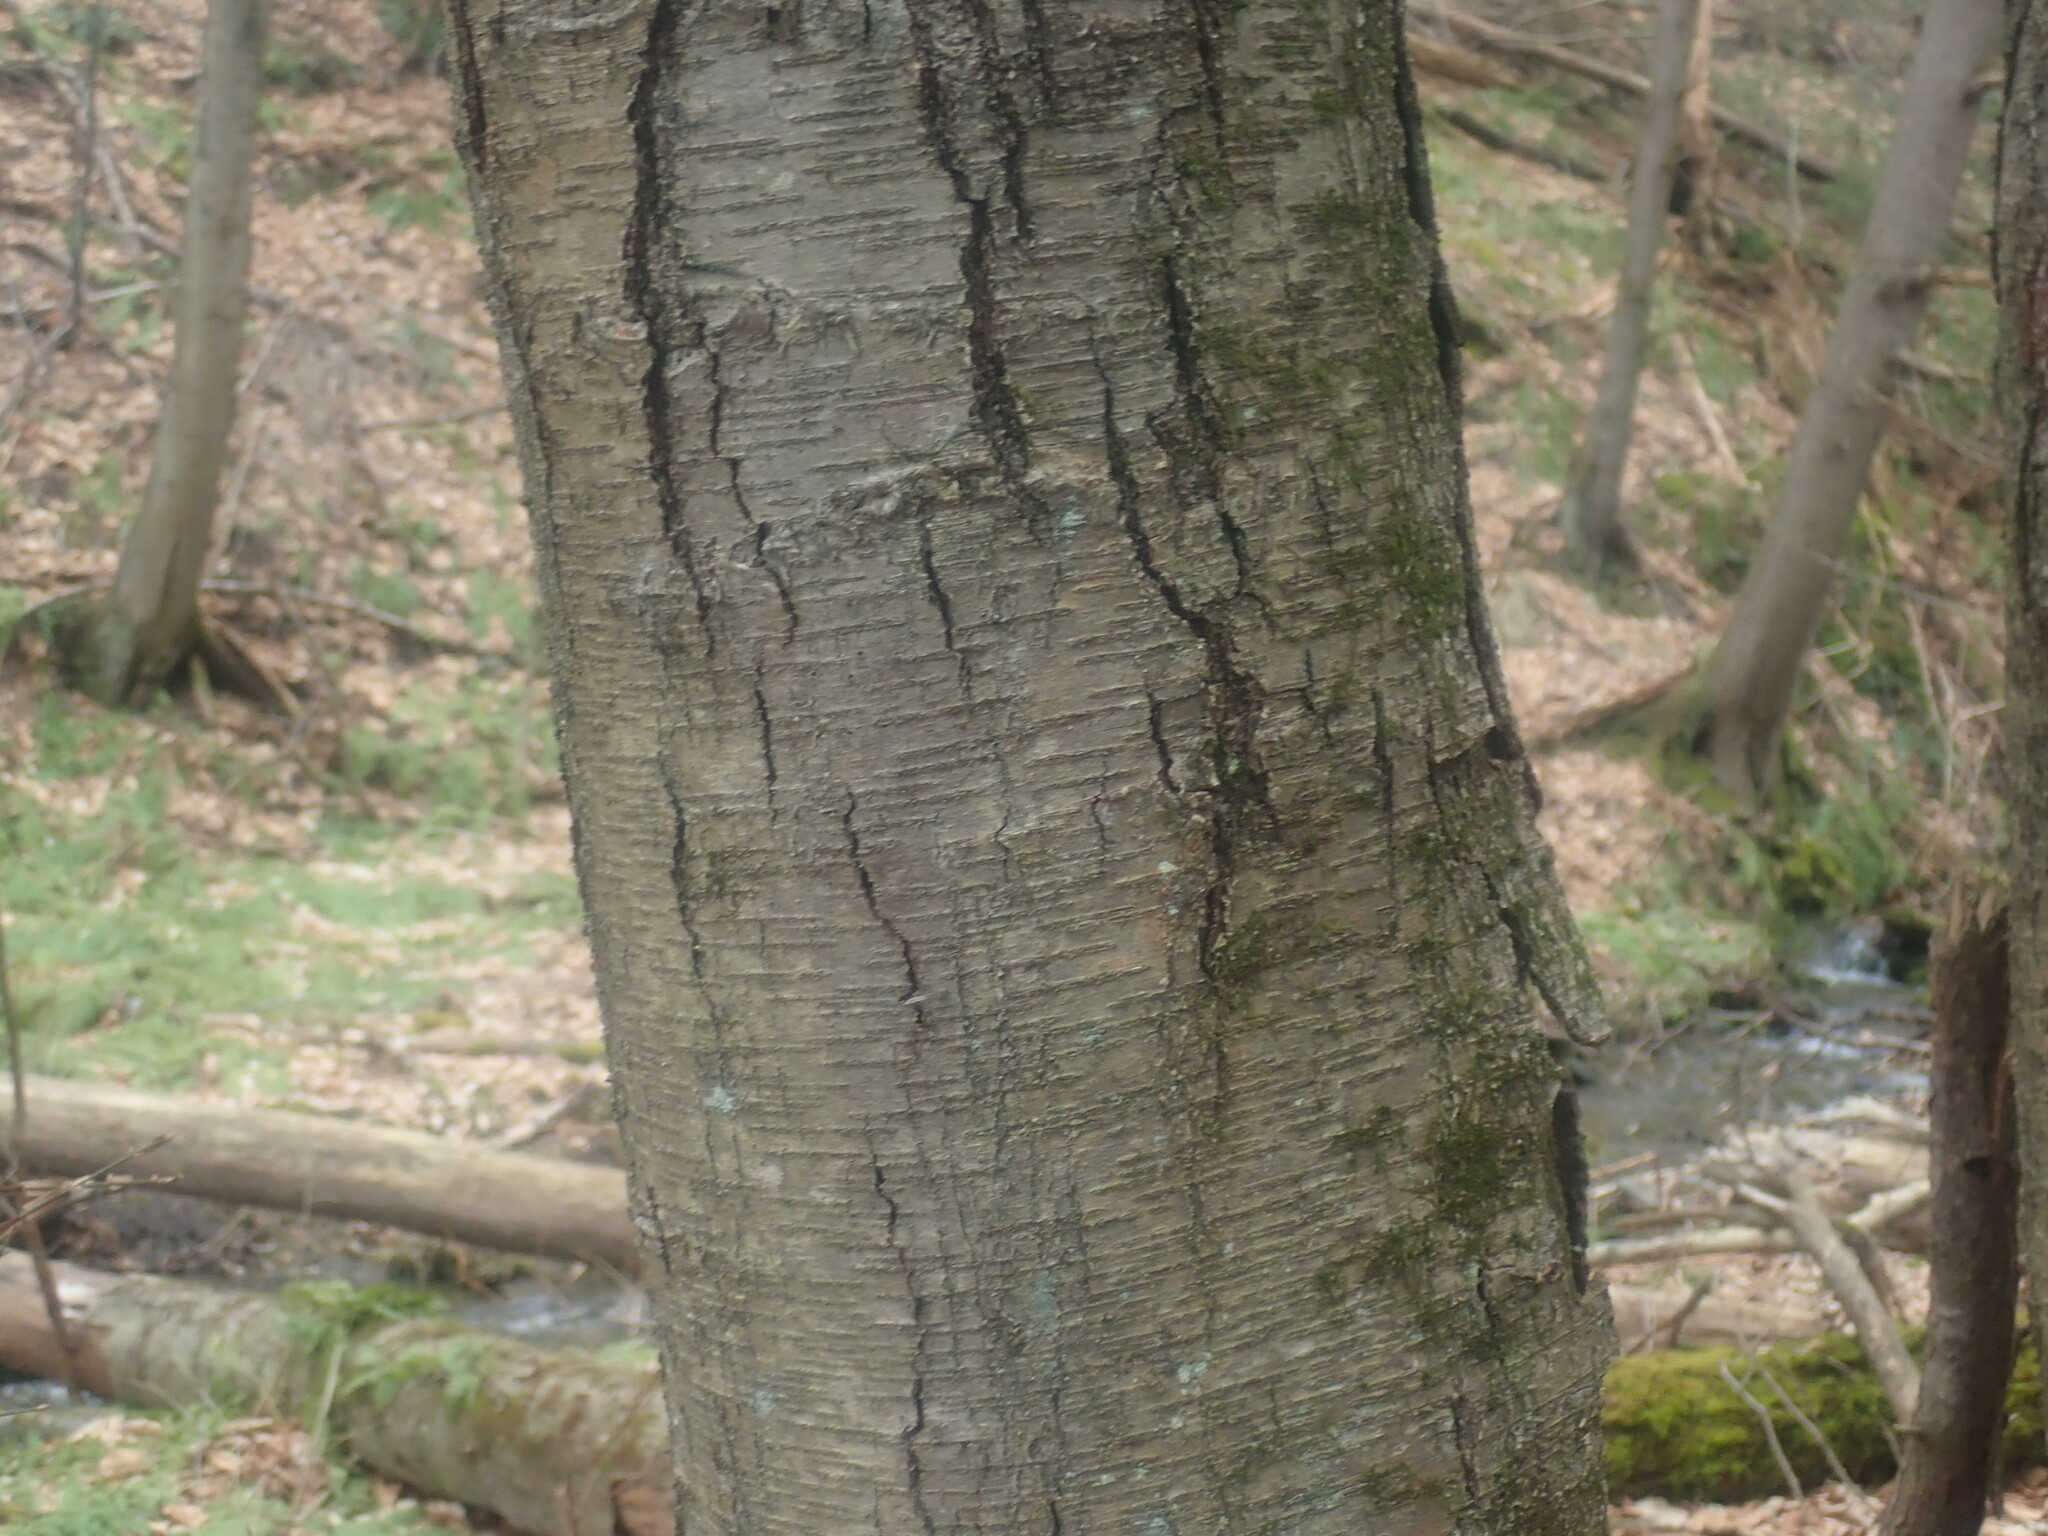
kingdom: Plantae
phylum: Tracheophyta
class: Magnoliopsida
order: Fagales
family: Betulaceae
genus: Betula
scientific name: Betula lenta
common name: Black birch
